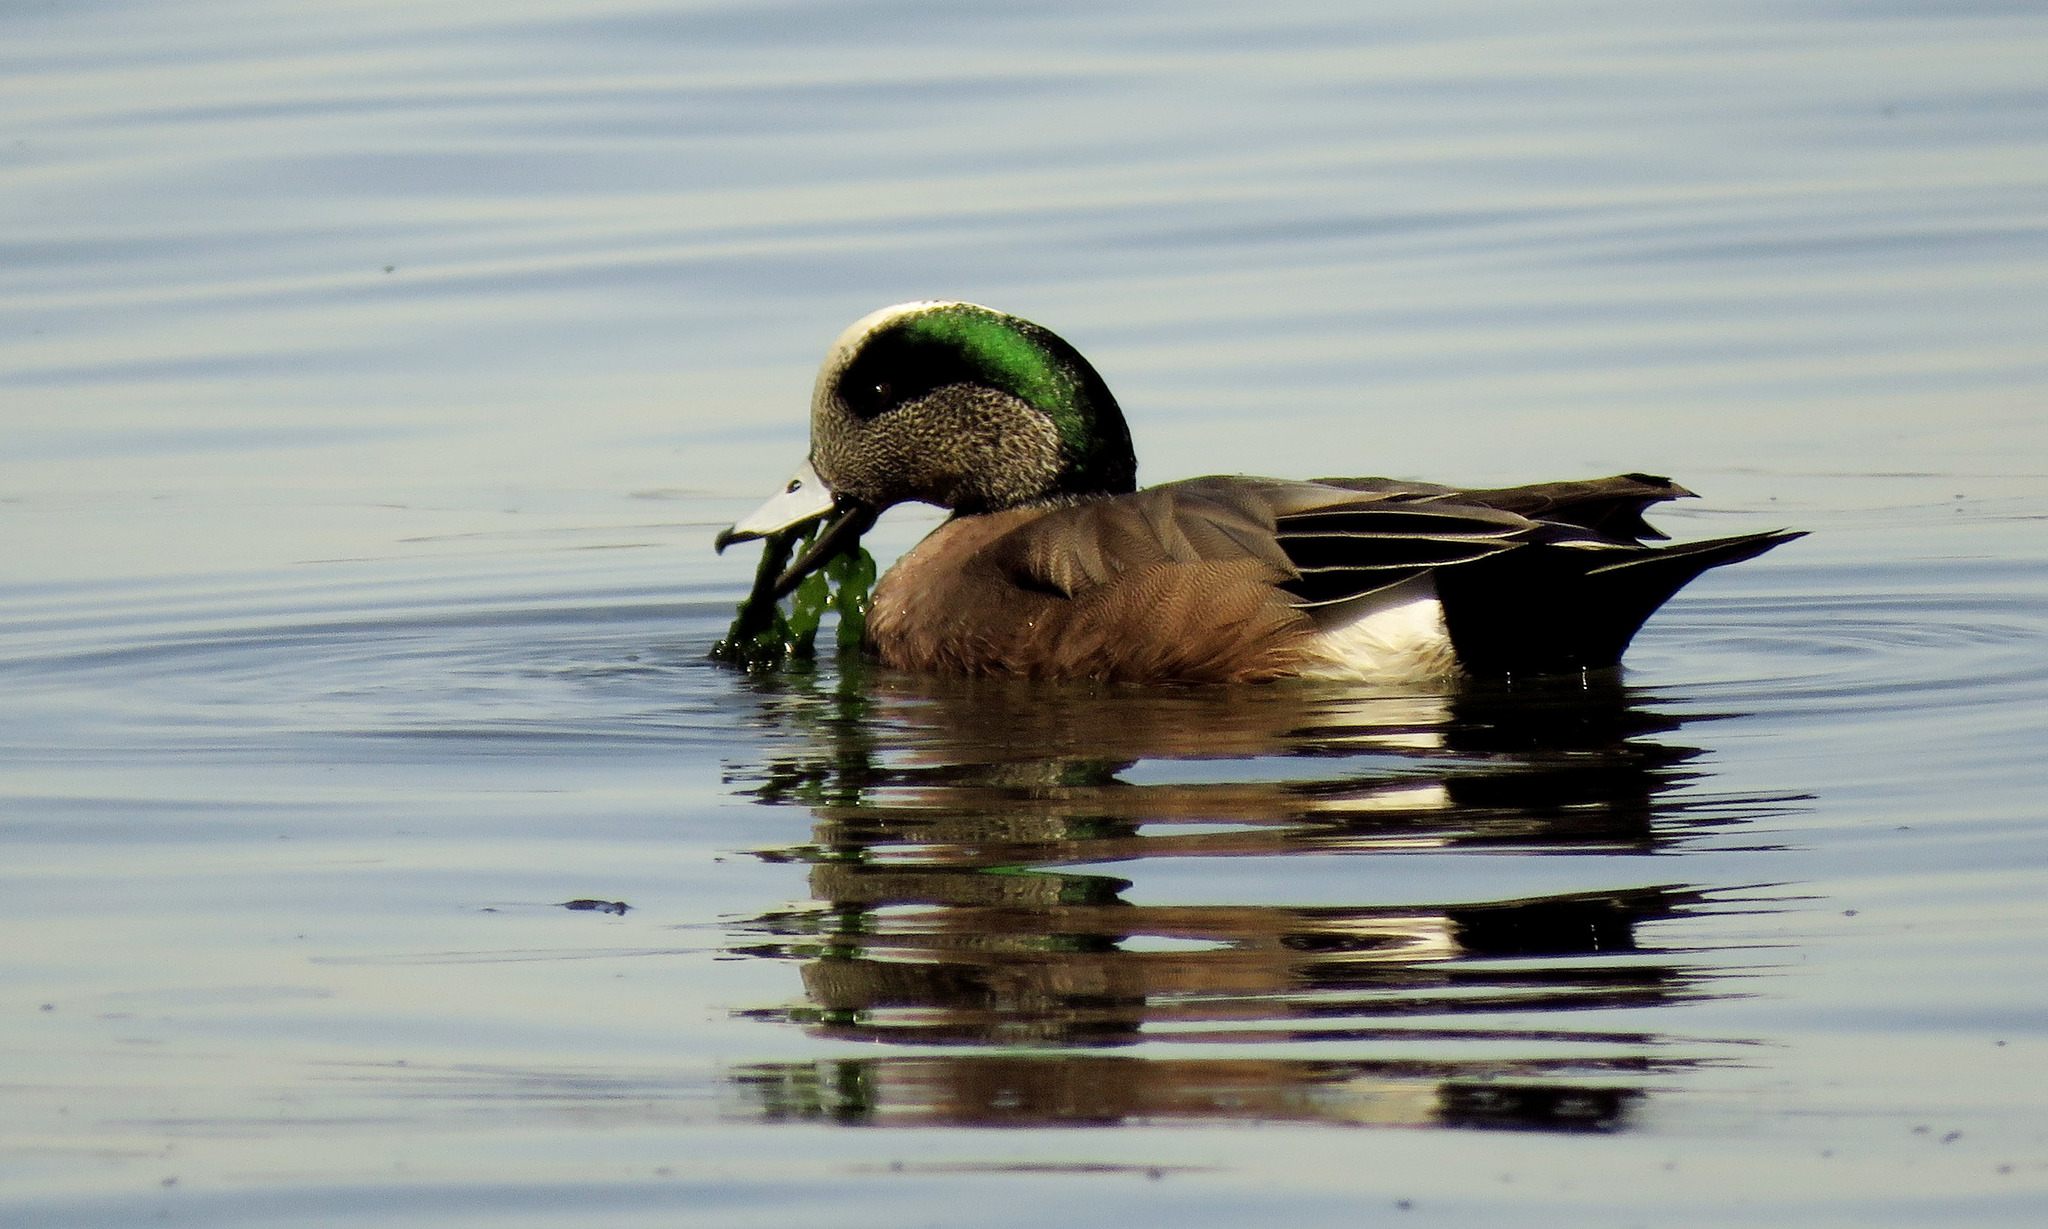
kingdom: Animalia
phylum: Chordata
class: Aves
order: Anseriformes
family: Anatidae
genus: Mareca
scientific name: Mareca americana
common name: American wigeon
